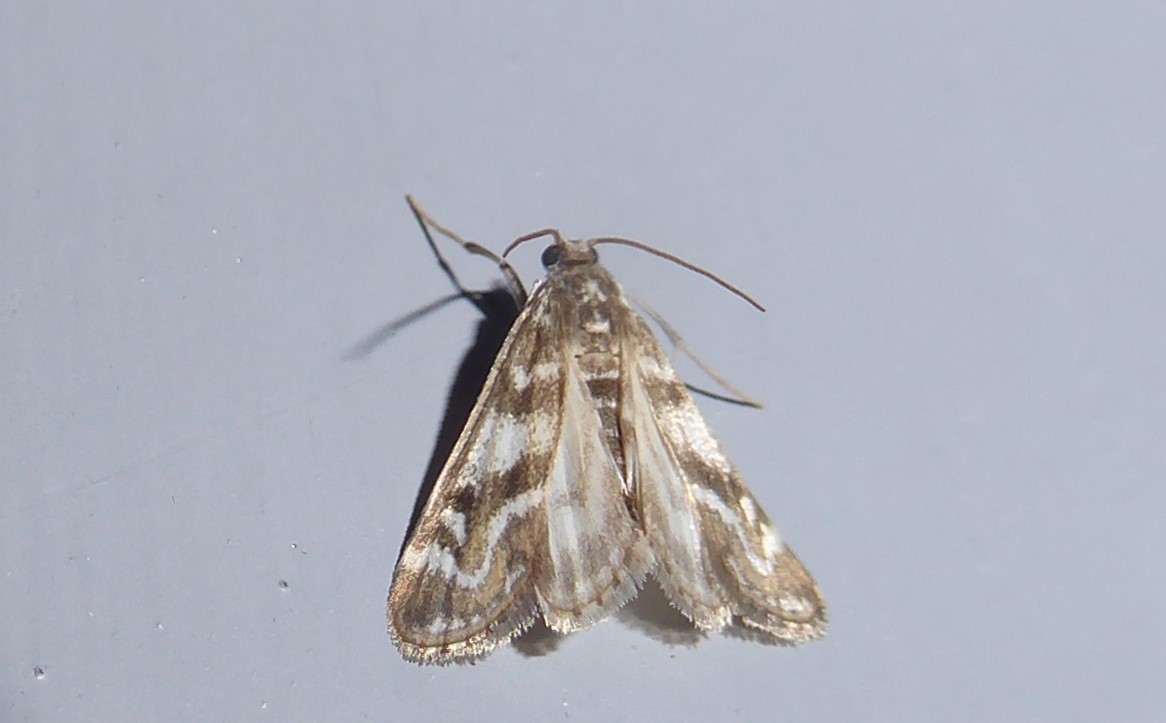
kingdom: Animalia
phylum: Arthropoda
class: Insecta
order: Lepidoptera
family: Crambidae
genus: Hygraula
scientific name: Hygraula nitens
